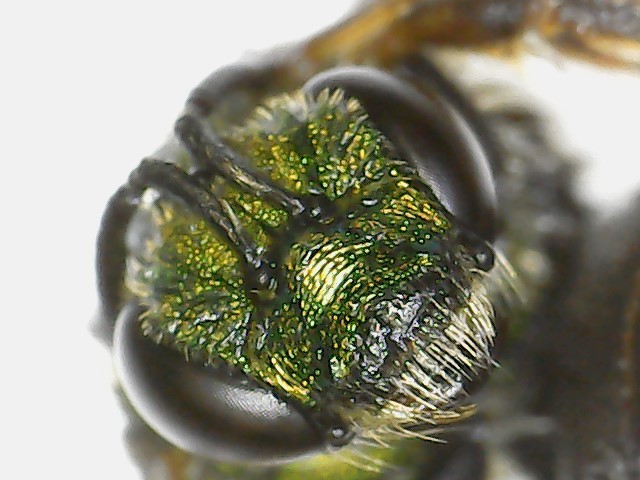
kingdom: Animalia
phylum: Arthropoda
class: Insecta
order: Hymenoptera
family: Halictidae
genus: Agapostemon
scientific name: Agapostemon sericeus
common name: Silky striped sweat bee
